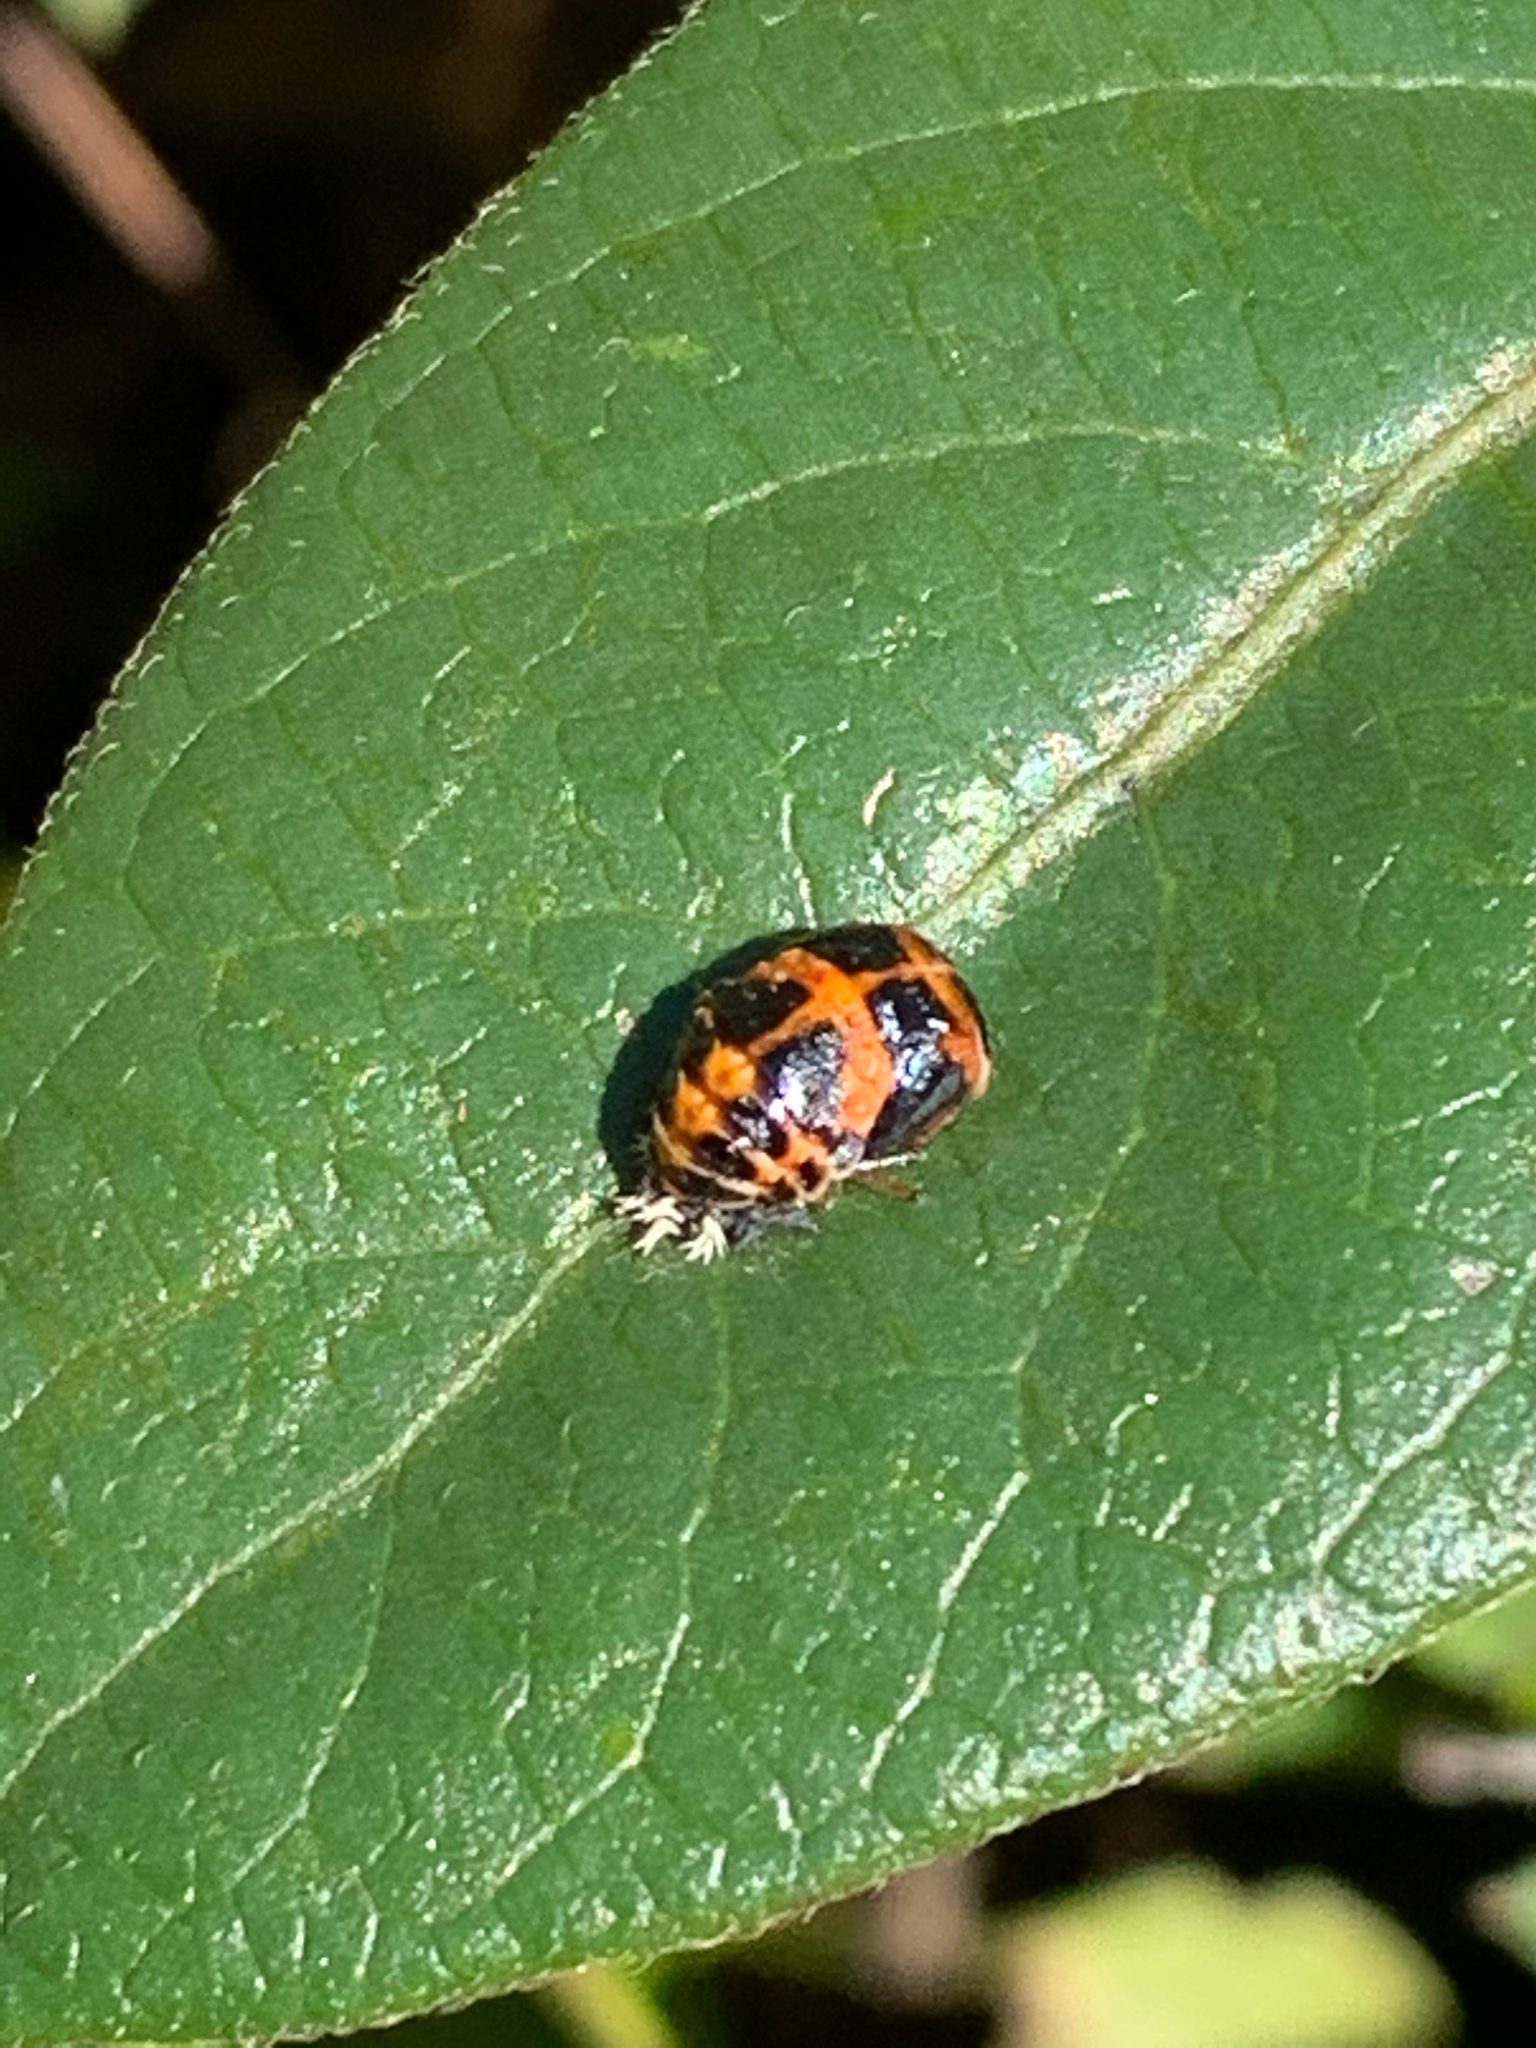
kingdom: Animalia
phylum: Arthropoda
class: Insecta
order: Coleoptera
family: Coccinellidae
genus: Harmonia
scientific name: Harmonia axyridis
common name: Harlequin ladybird
